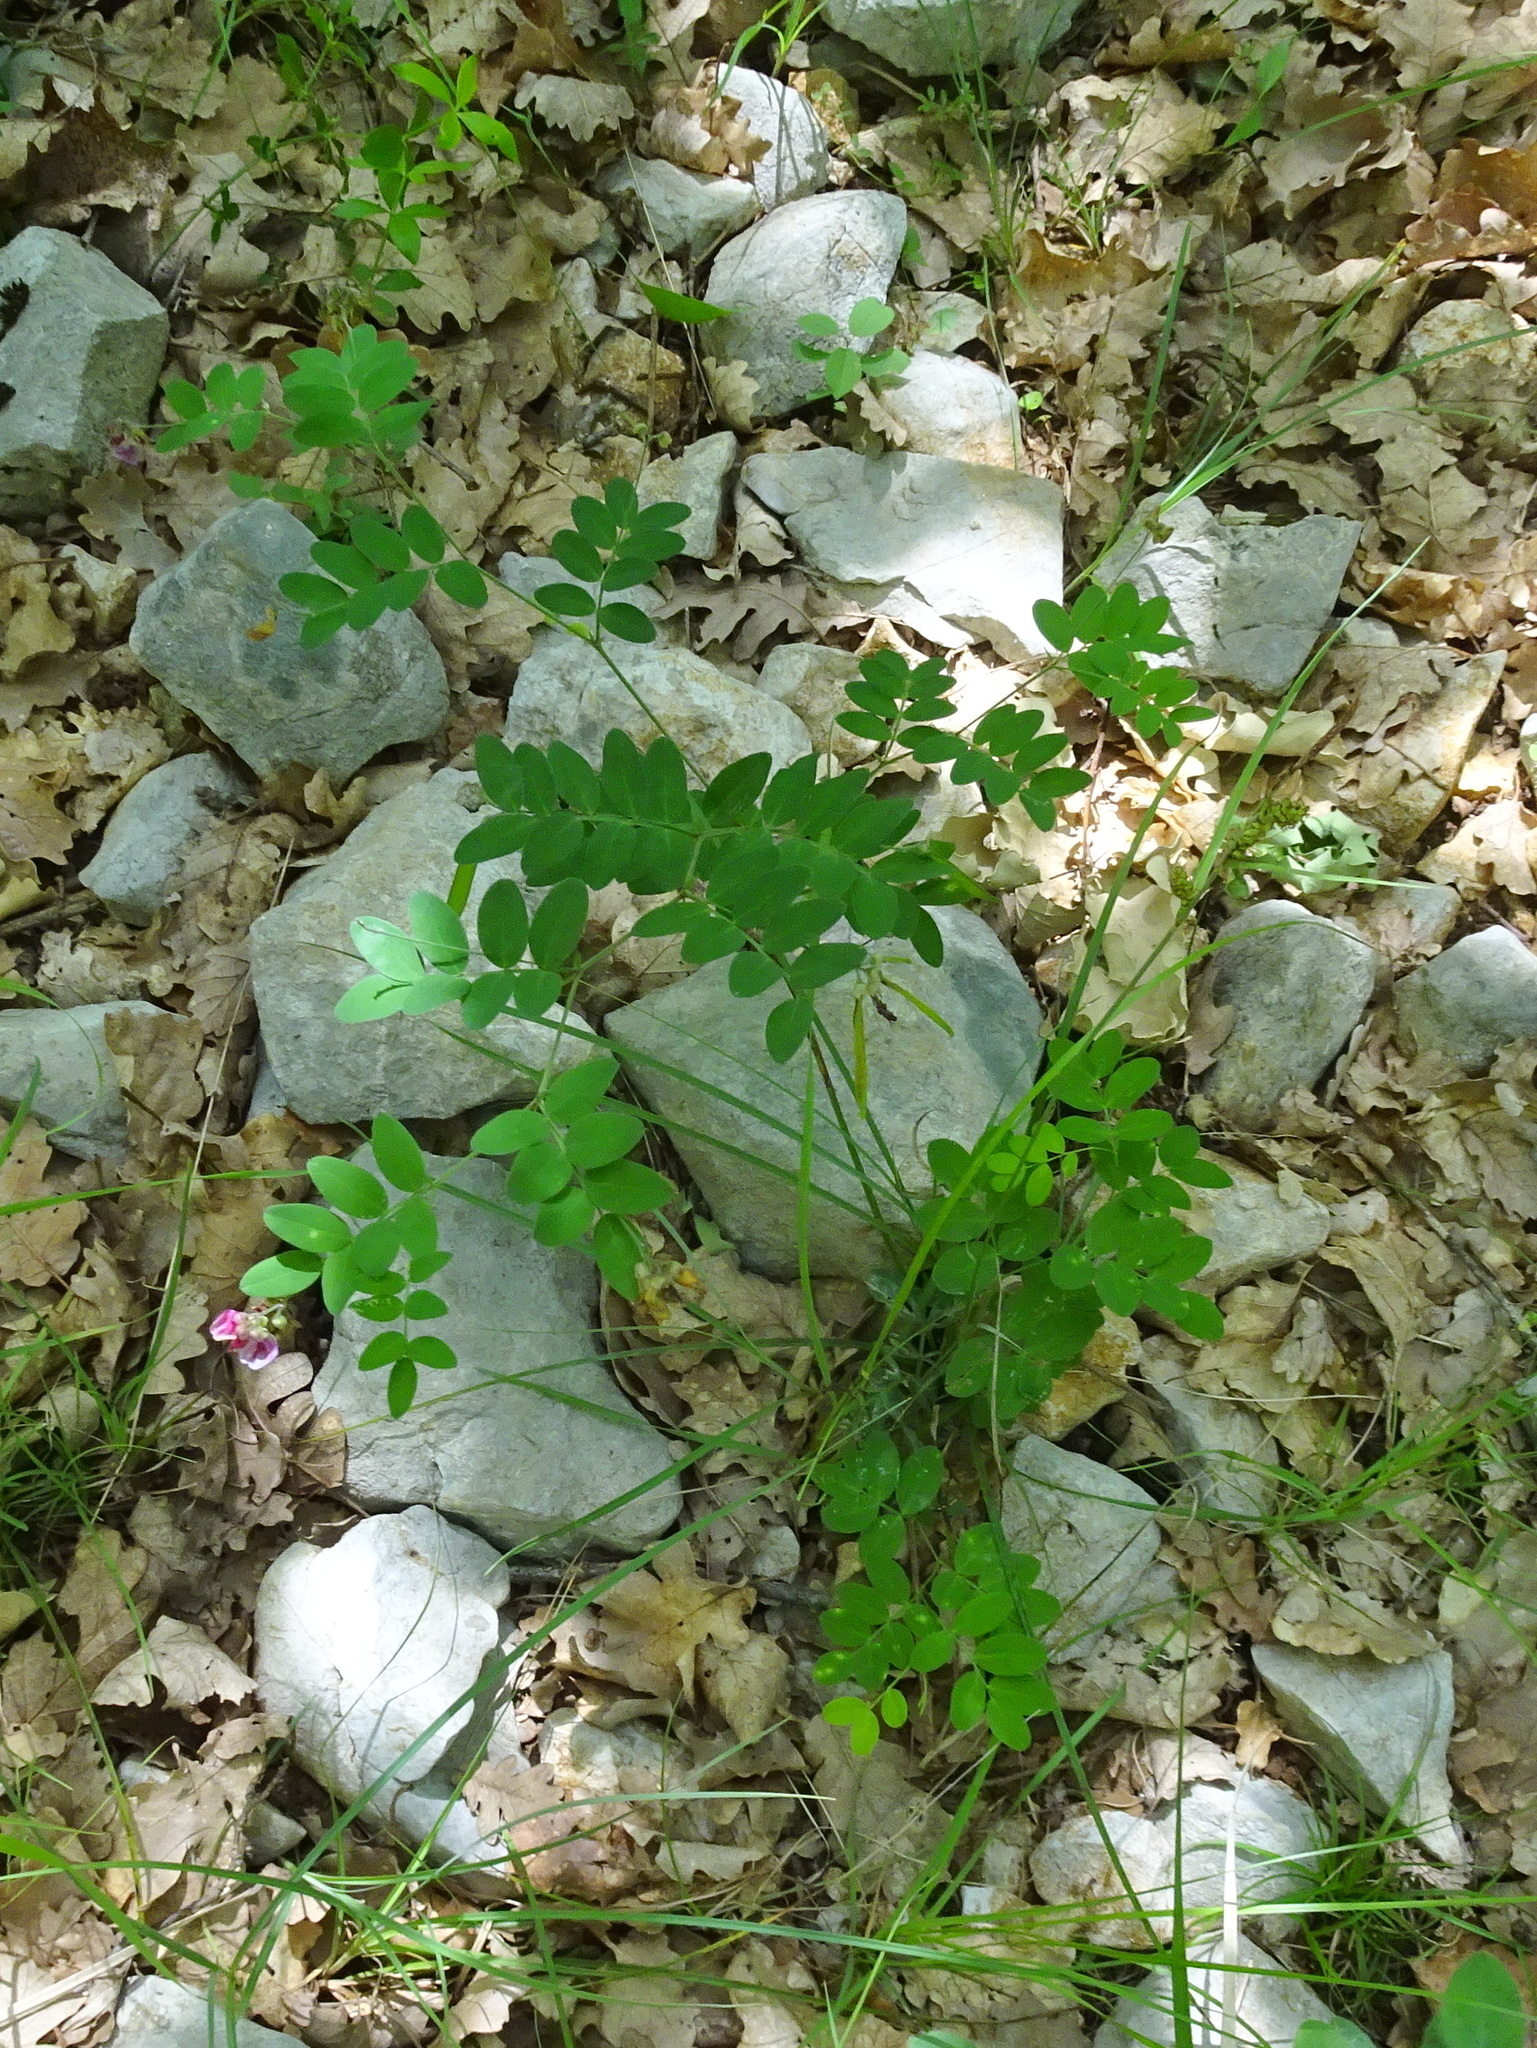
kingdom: Plantae
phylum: Tracheophyta
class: Magnoliopsida
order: Fabales
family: Fabaceae
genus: Lathyrus
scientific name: Lathyrus niger
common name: Black pea
